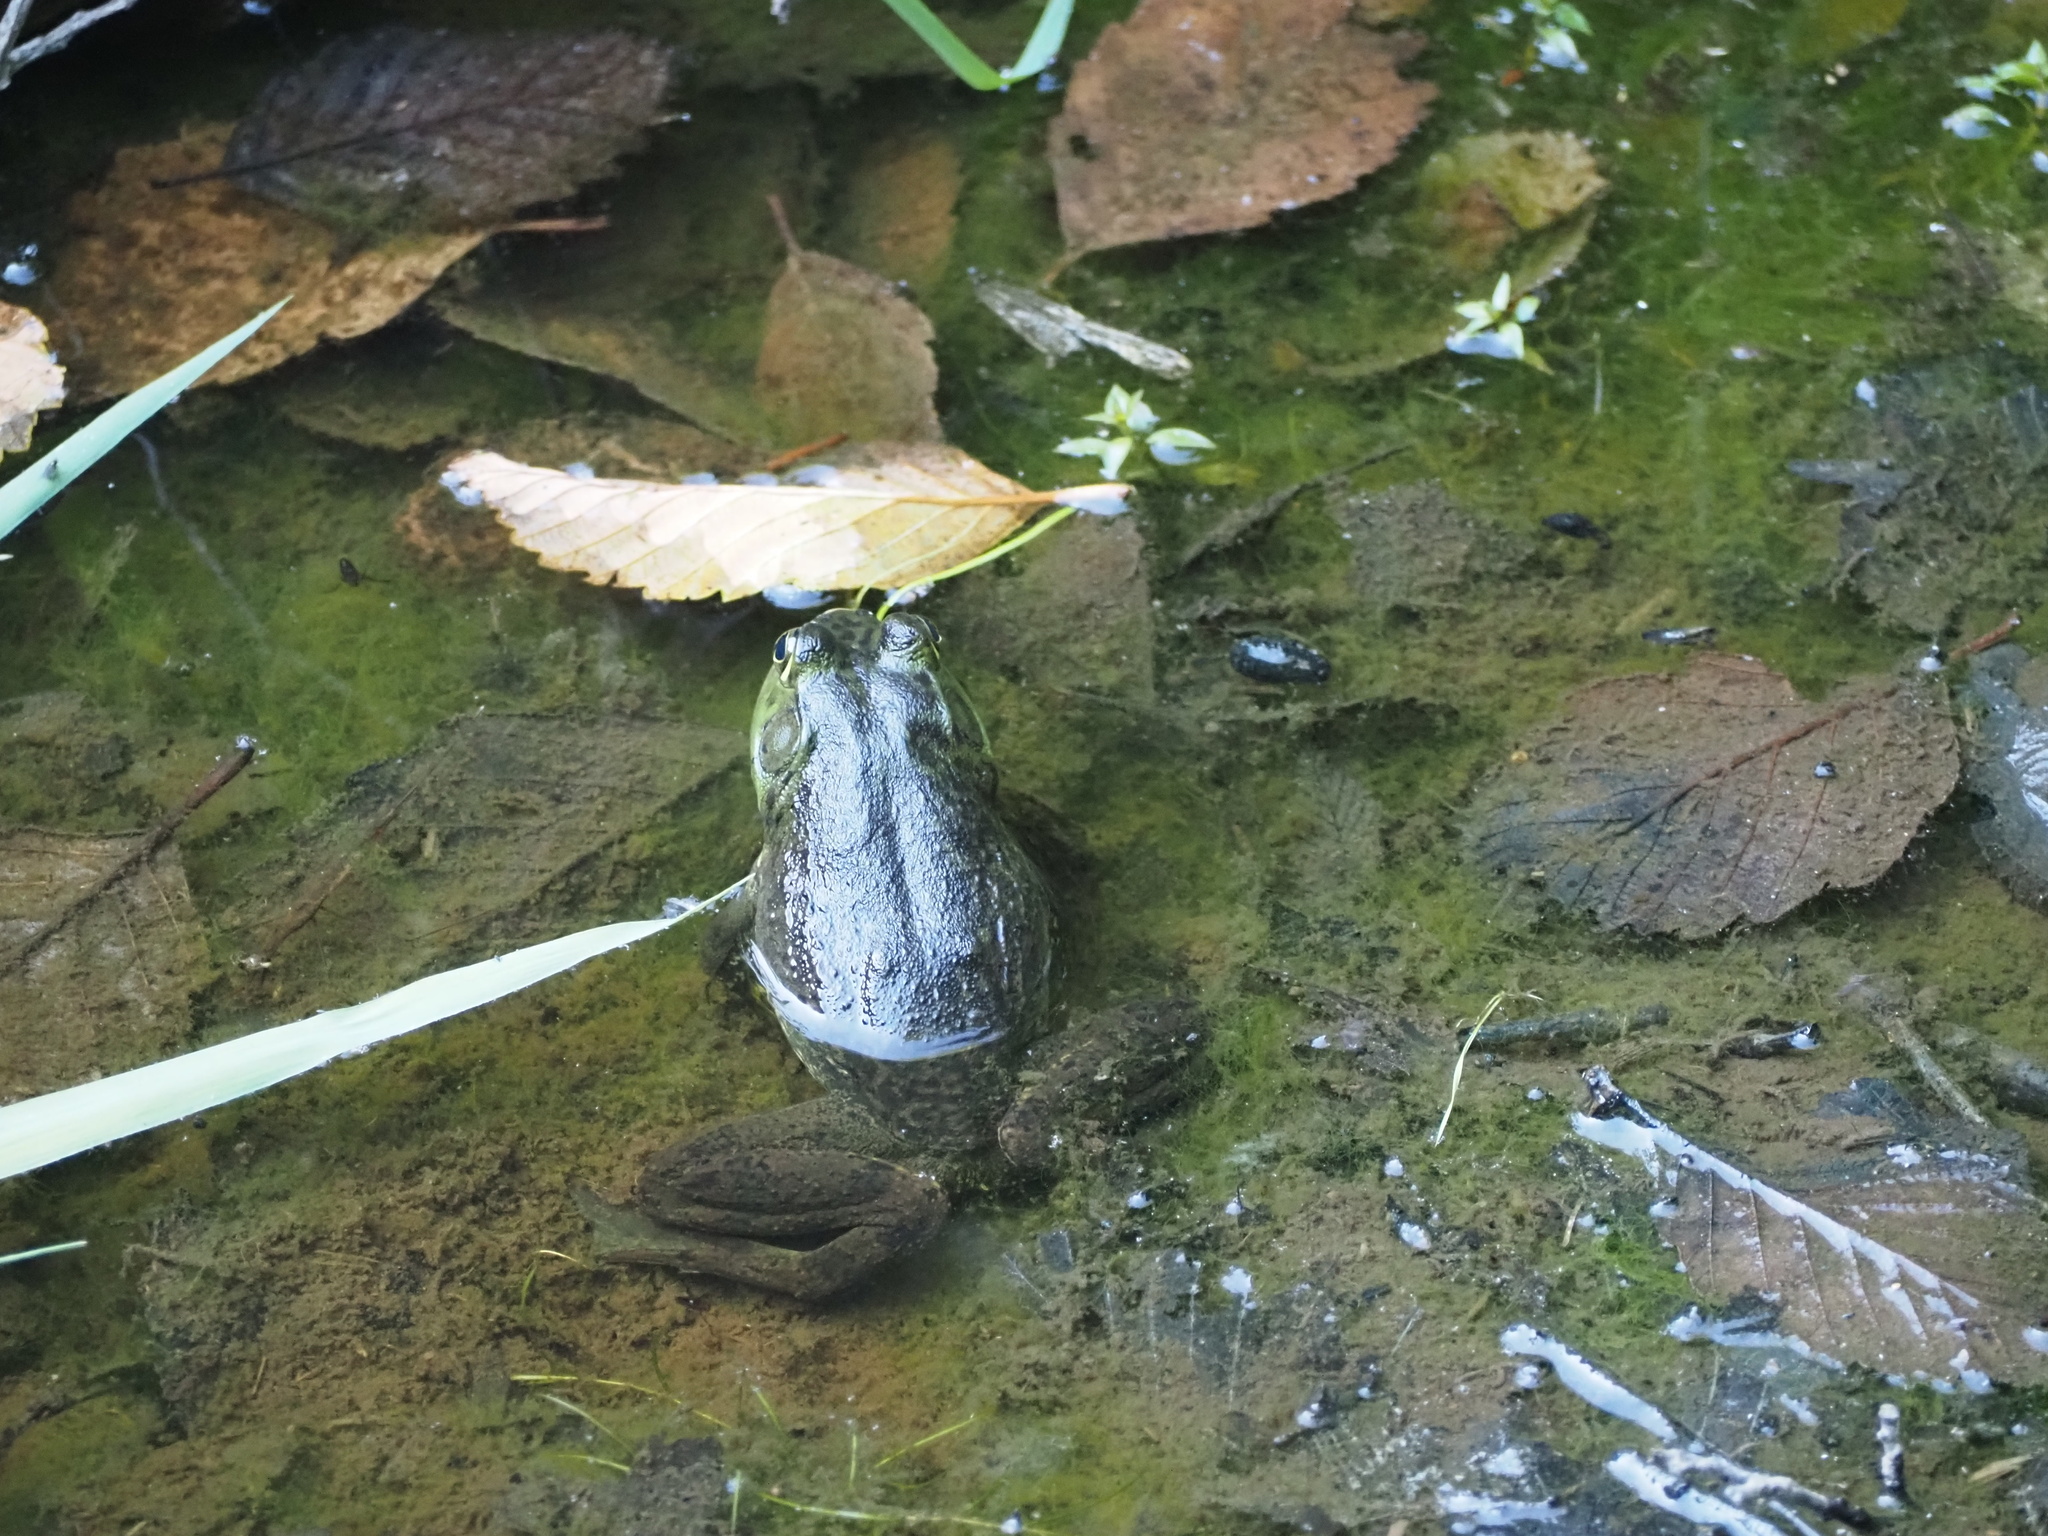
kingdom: Animalia
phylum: Chordata
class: Amphibia
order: Anura
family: Ranidae
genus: Lithobates
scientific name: Lithobates catesbeianus
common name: American bullfrog
